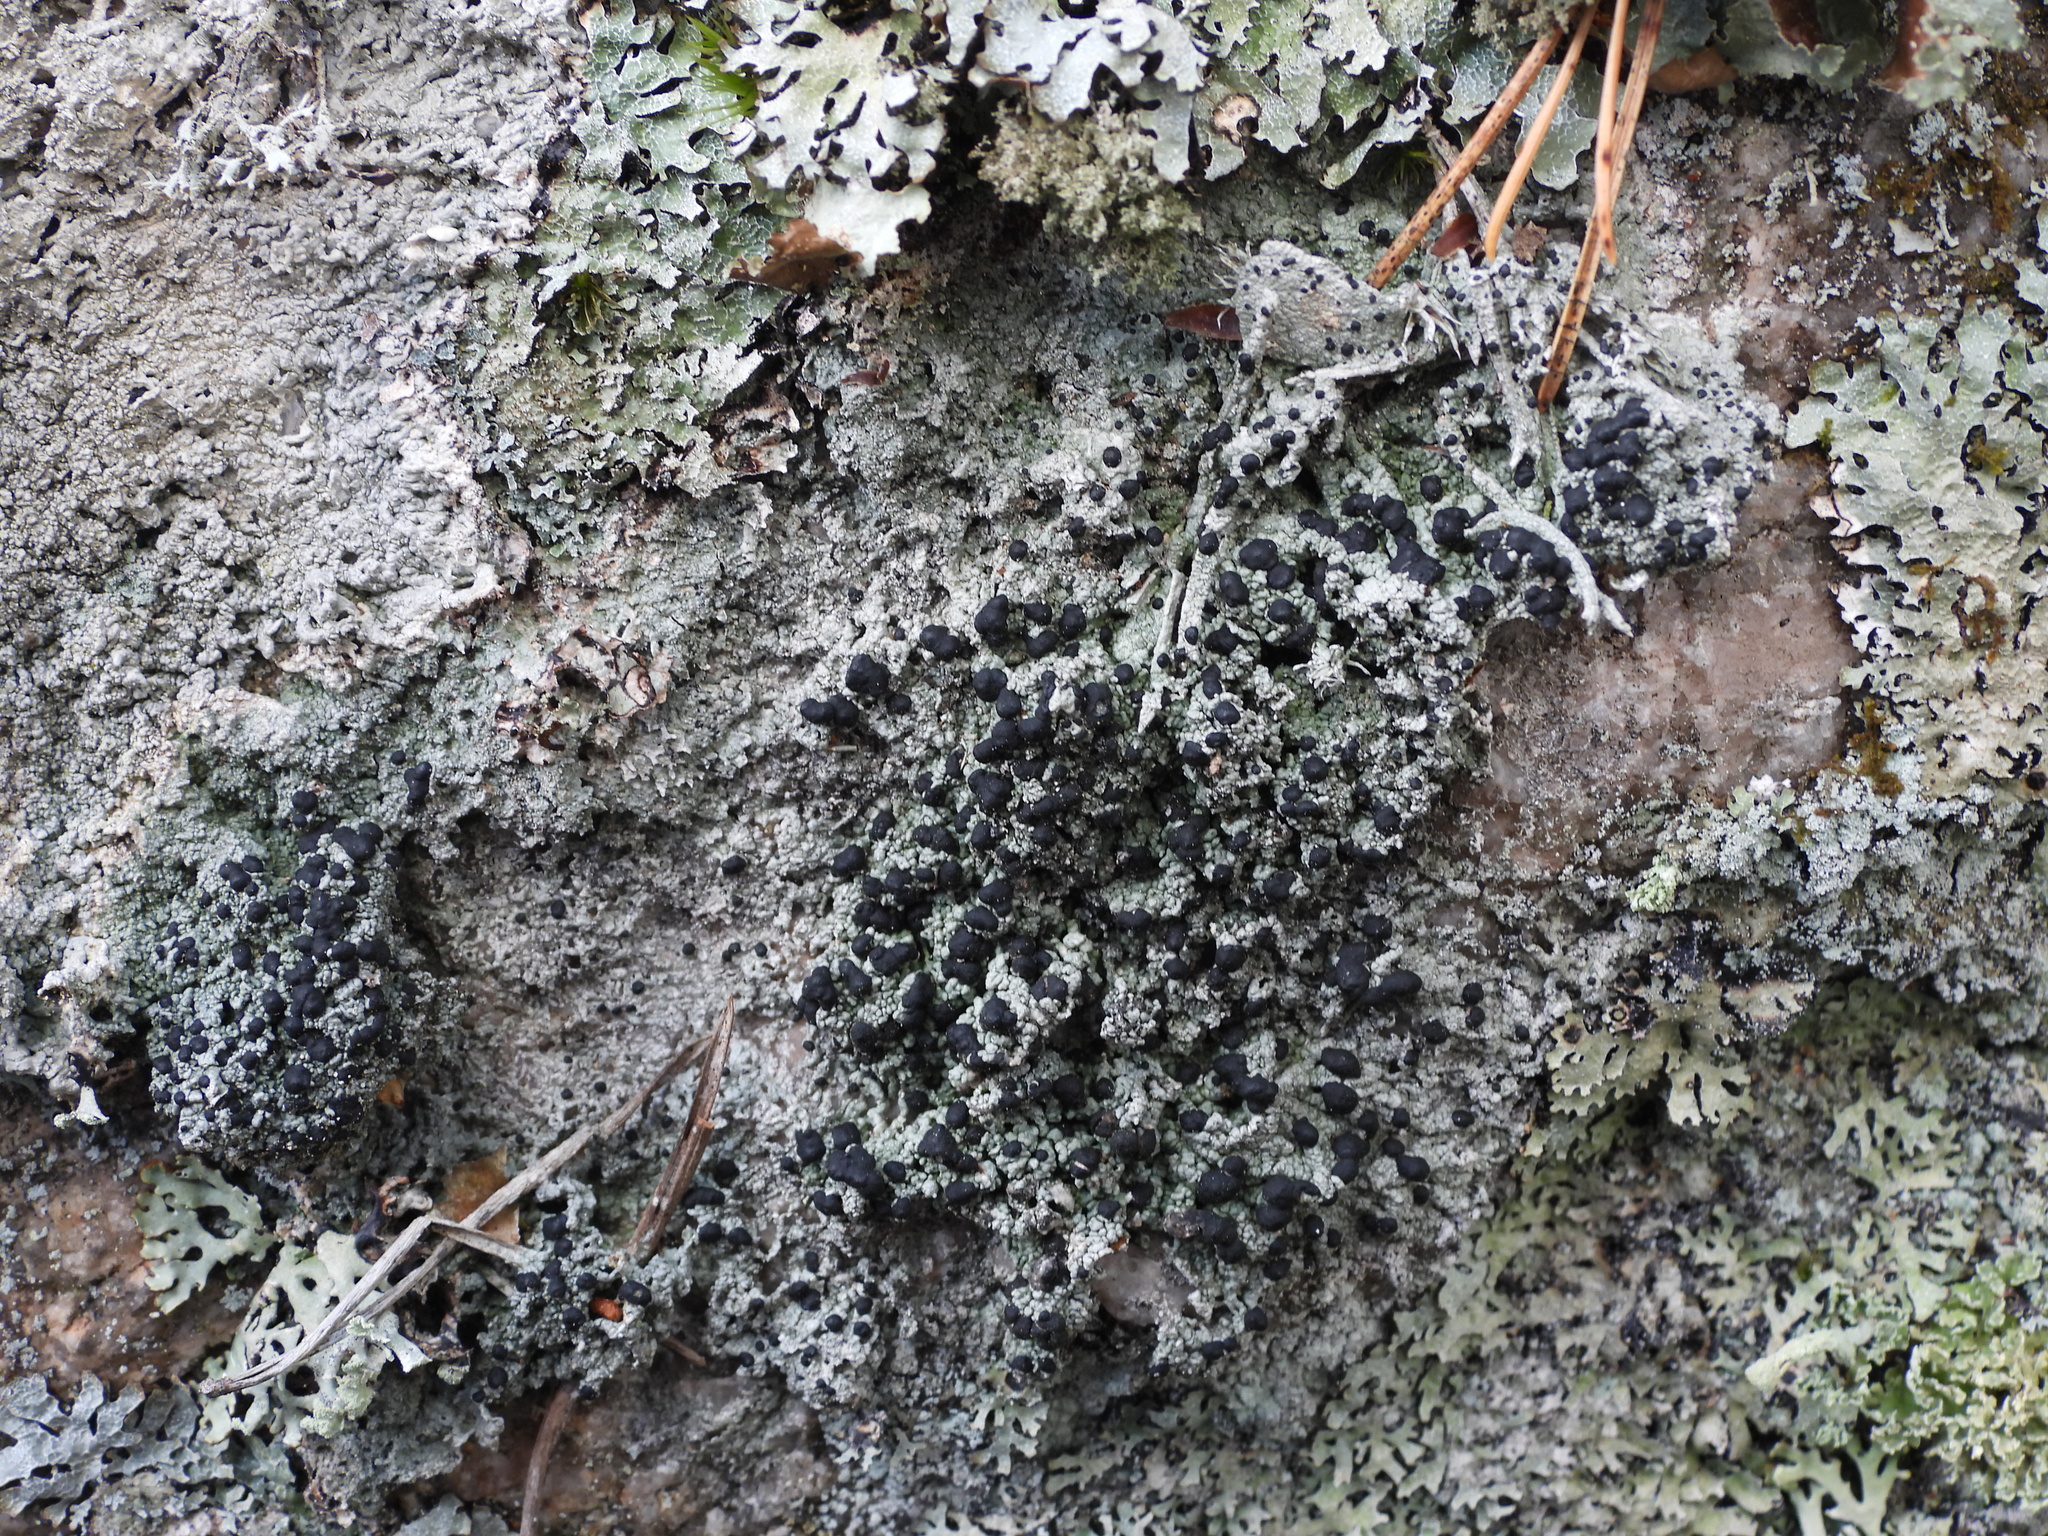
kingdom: Fungi
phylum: Ascomycota
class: Lecanoromycetes
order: Lecanorales
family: Tephromelataceae
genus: Mycoblastus
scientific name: Mycoblastus sanguinarius
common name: Bloody-heart lichen
